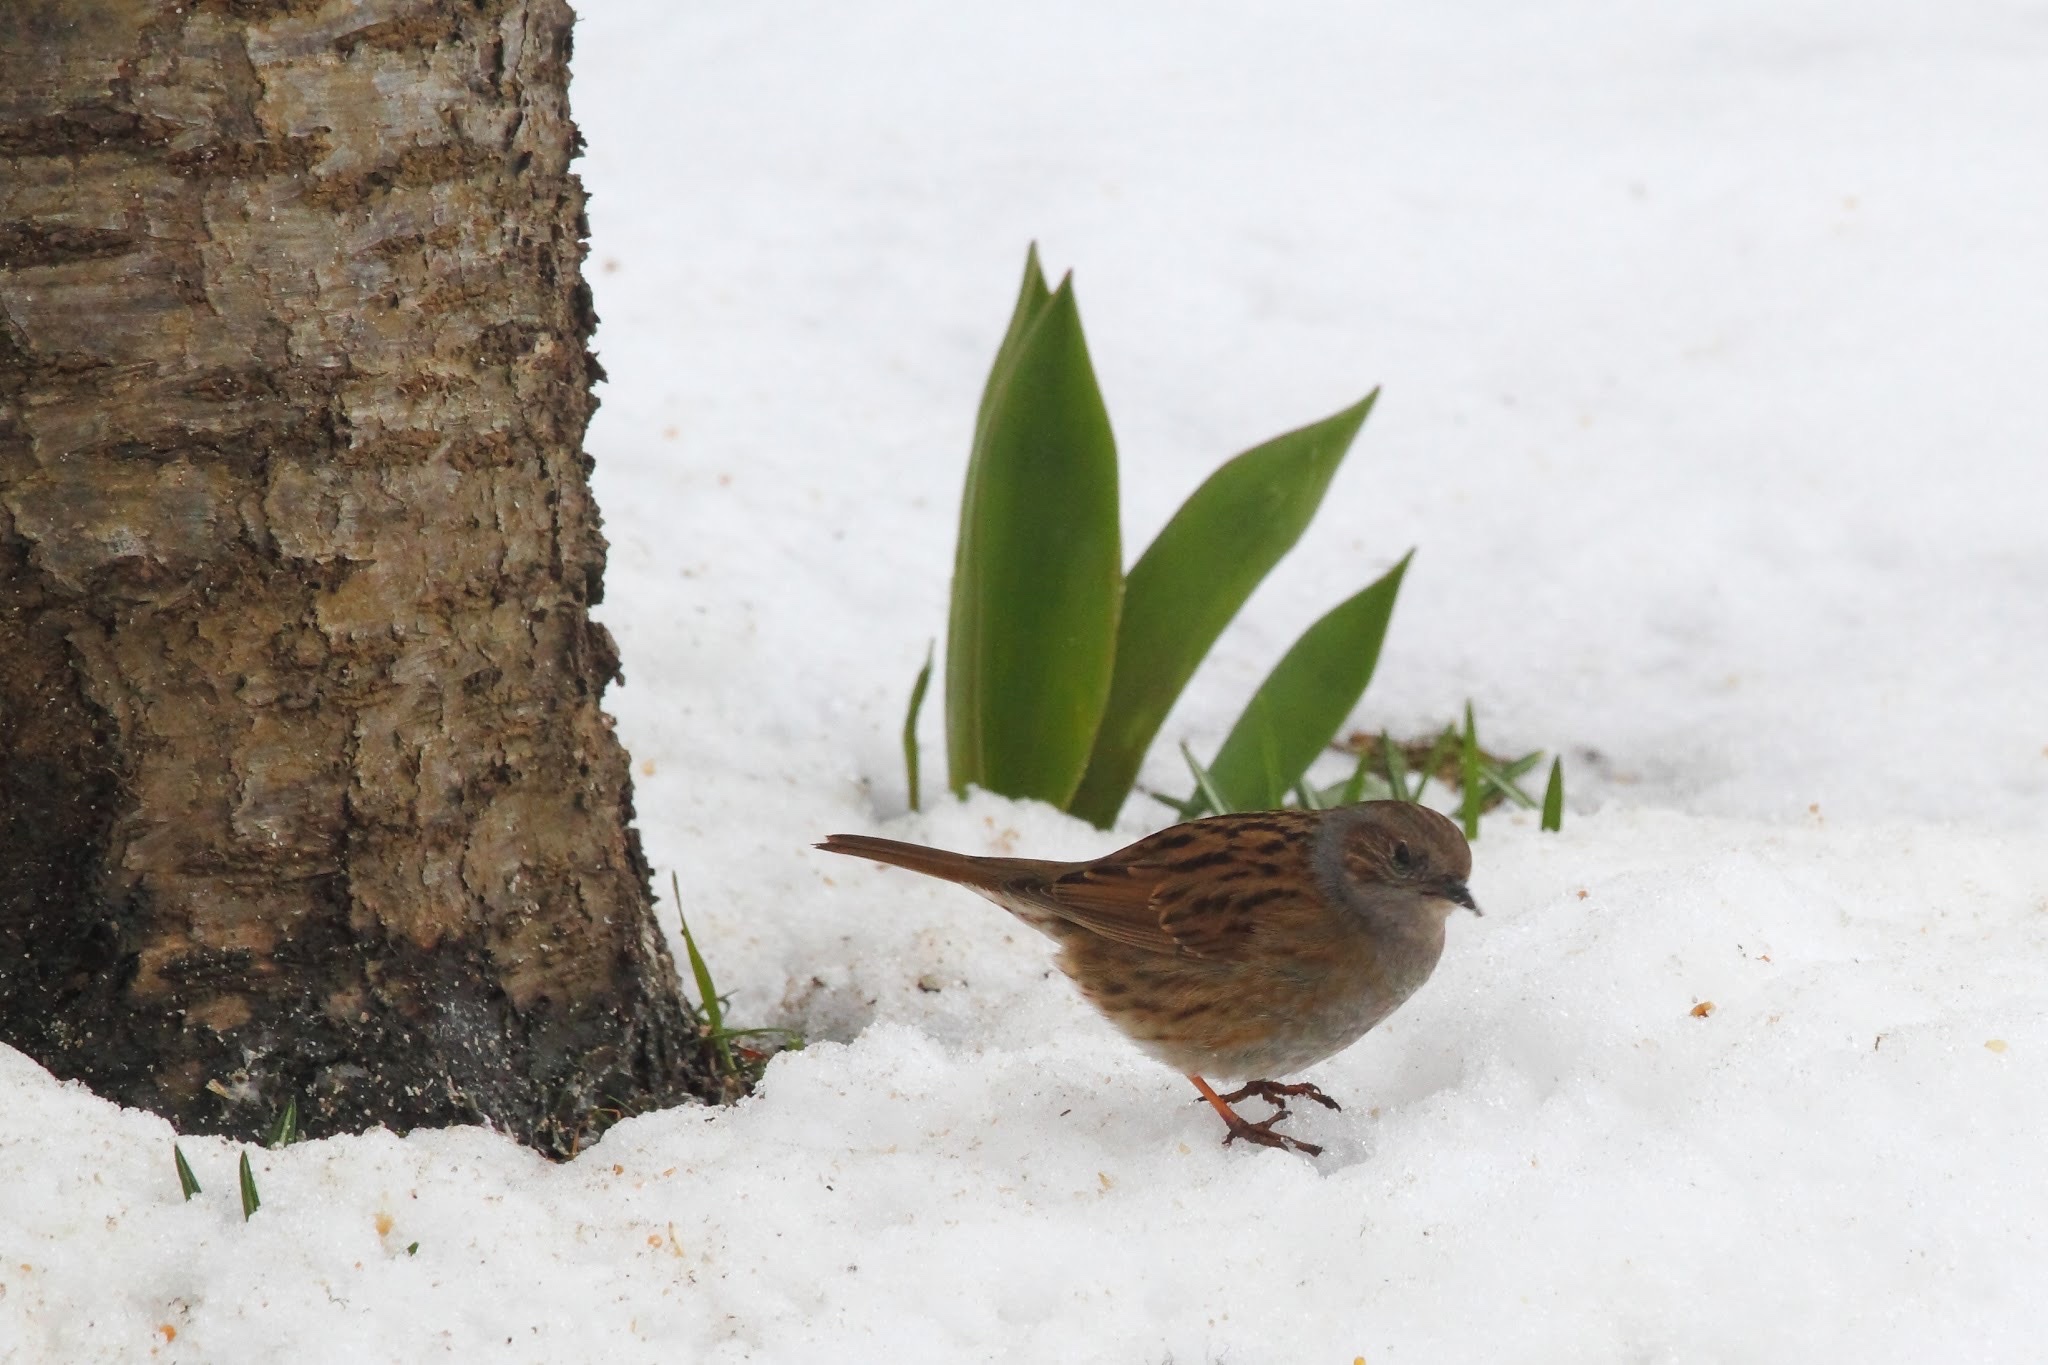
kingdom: Animalia
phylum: Chordata
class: Aves
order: Passeriformes
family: Prunellidae
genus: Prunella
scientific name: Prunella modularis
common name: Dunnock
